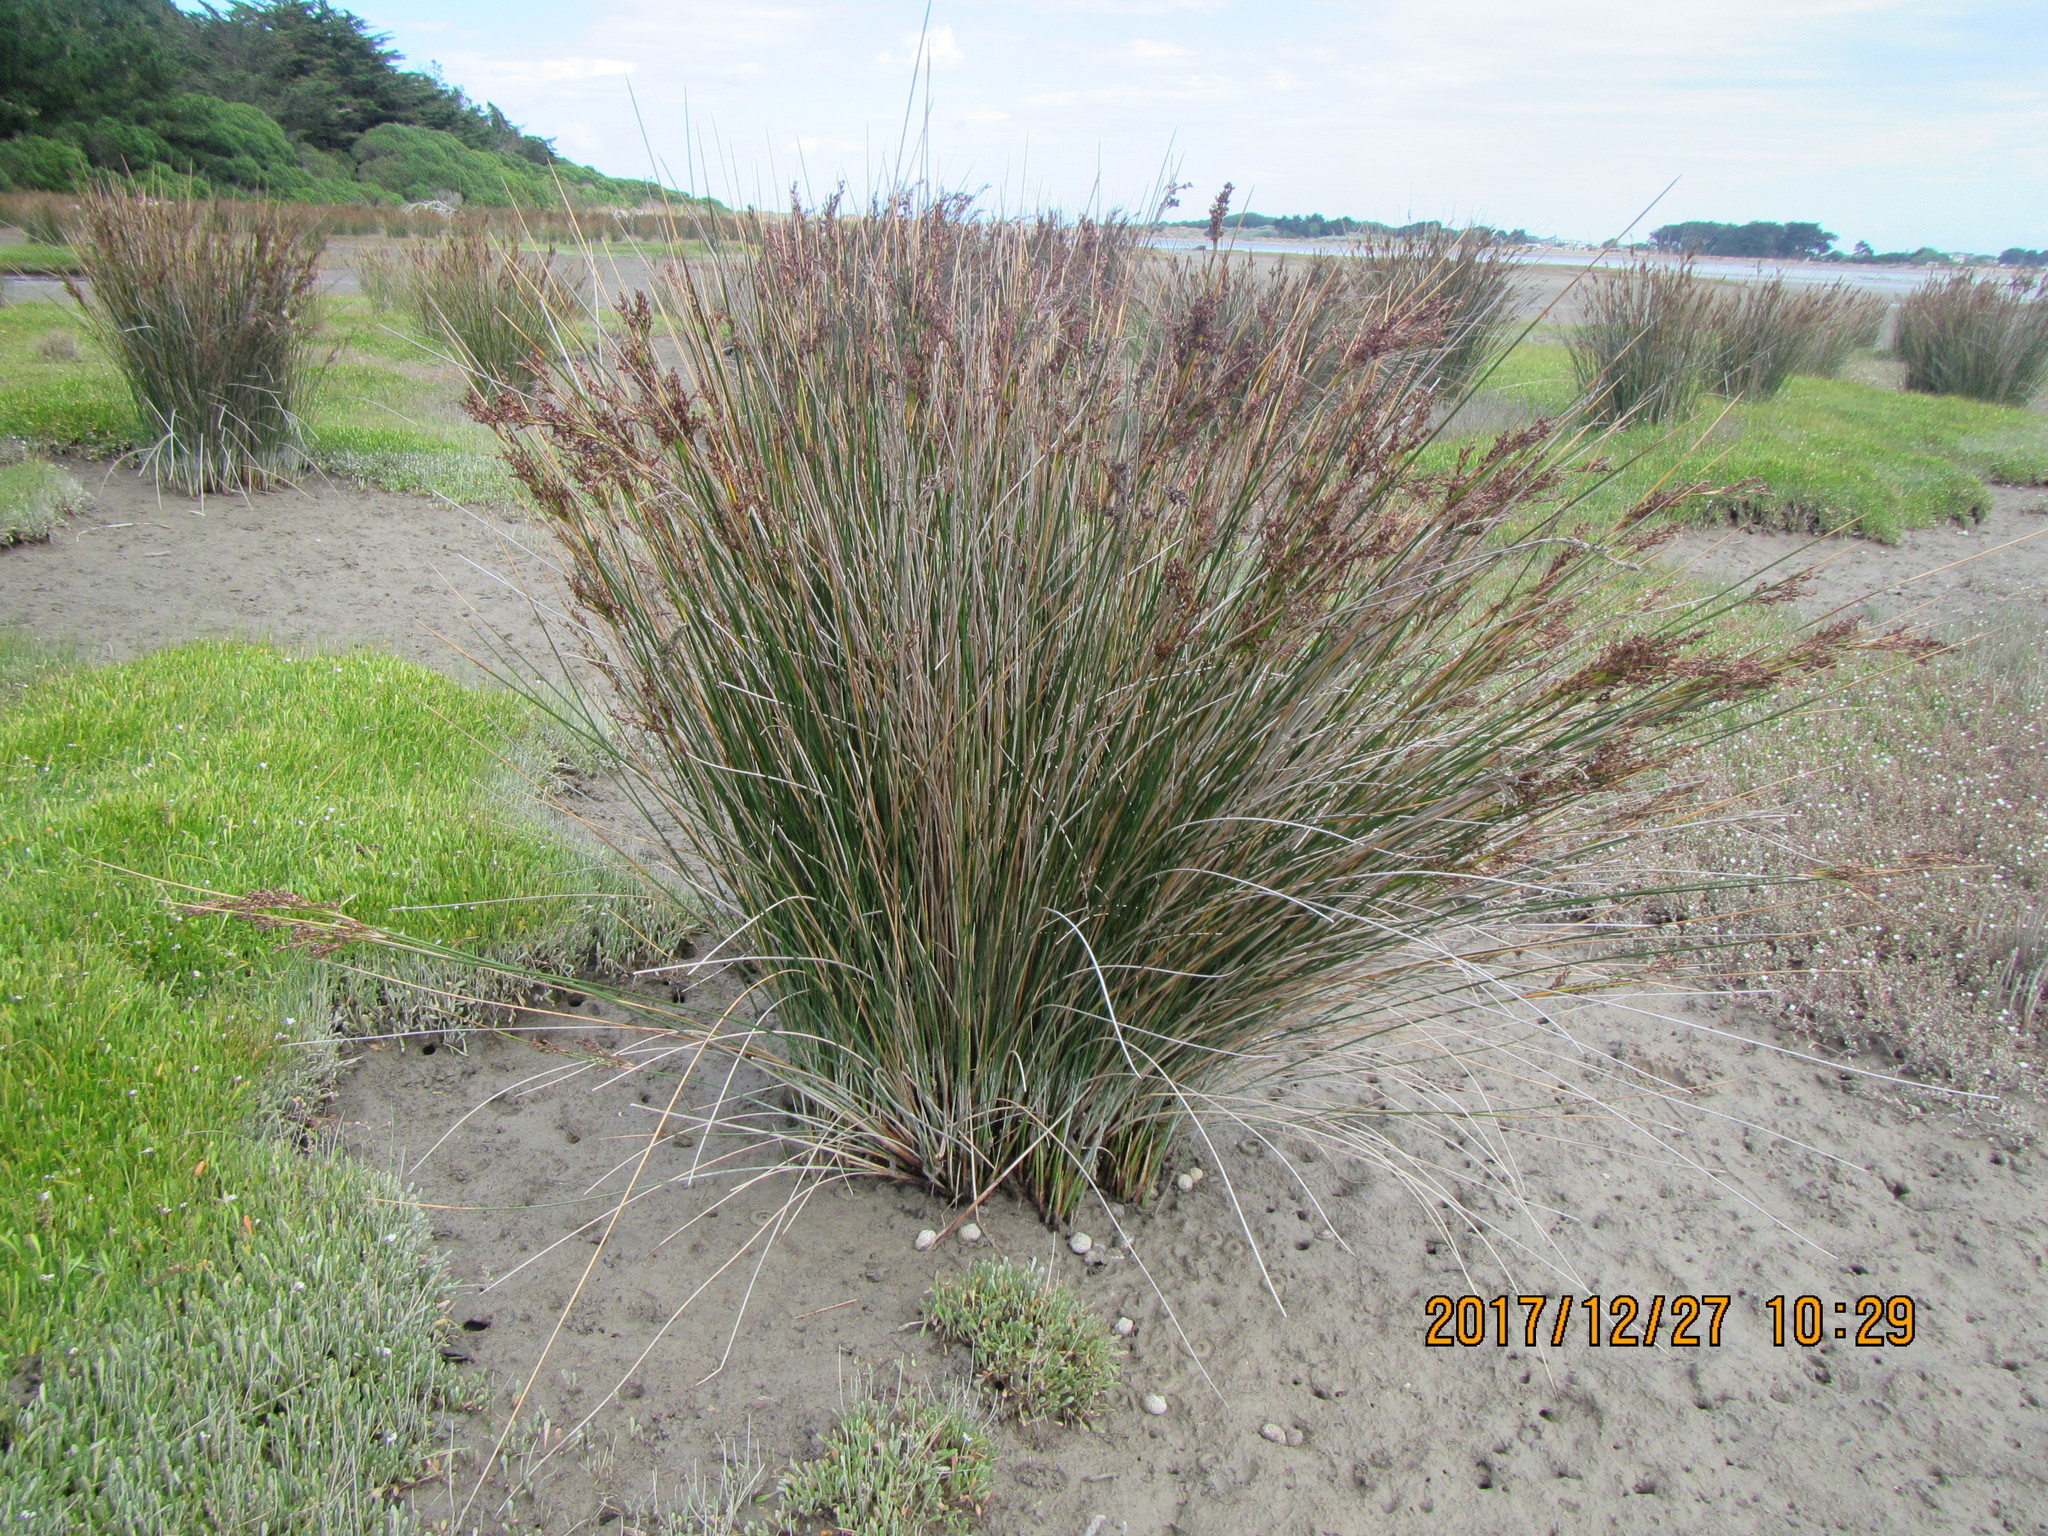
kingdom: Plantae
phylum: Tracheophyta
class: Liliopsida
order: Poales
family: Juncaceae
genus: Juncus
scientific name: Juncus kraussii
